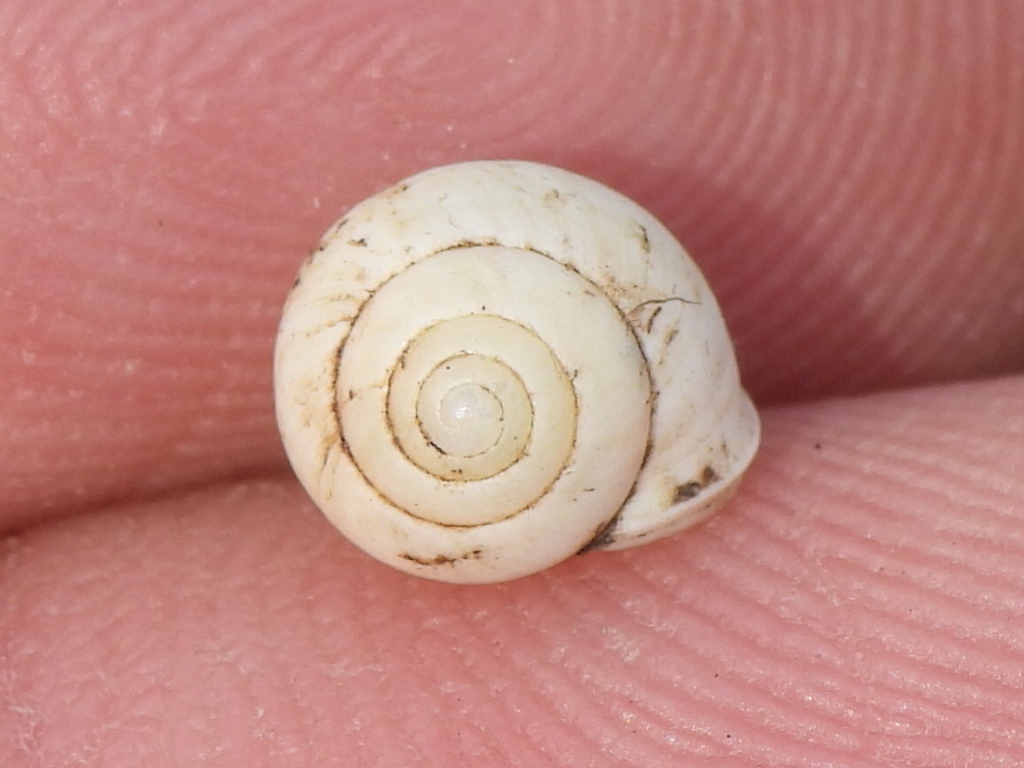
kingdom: Animalia
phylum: Mollusca
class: Gastropoda
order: Cycloneritida
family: Helicinidae
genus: Helicina
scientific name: Helicina orbiculata
